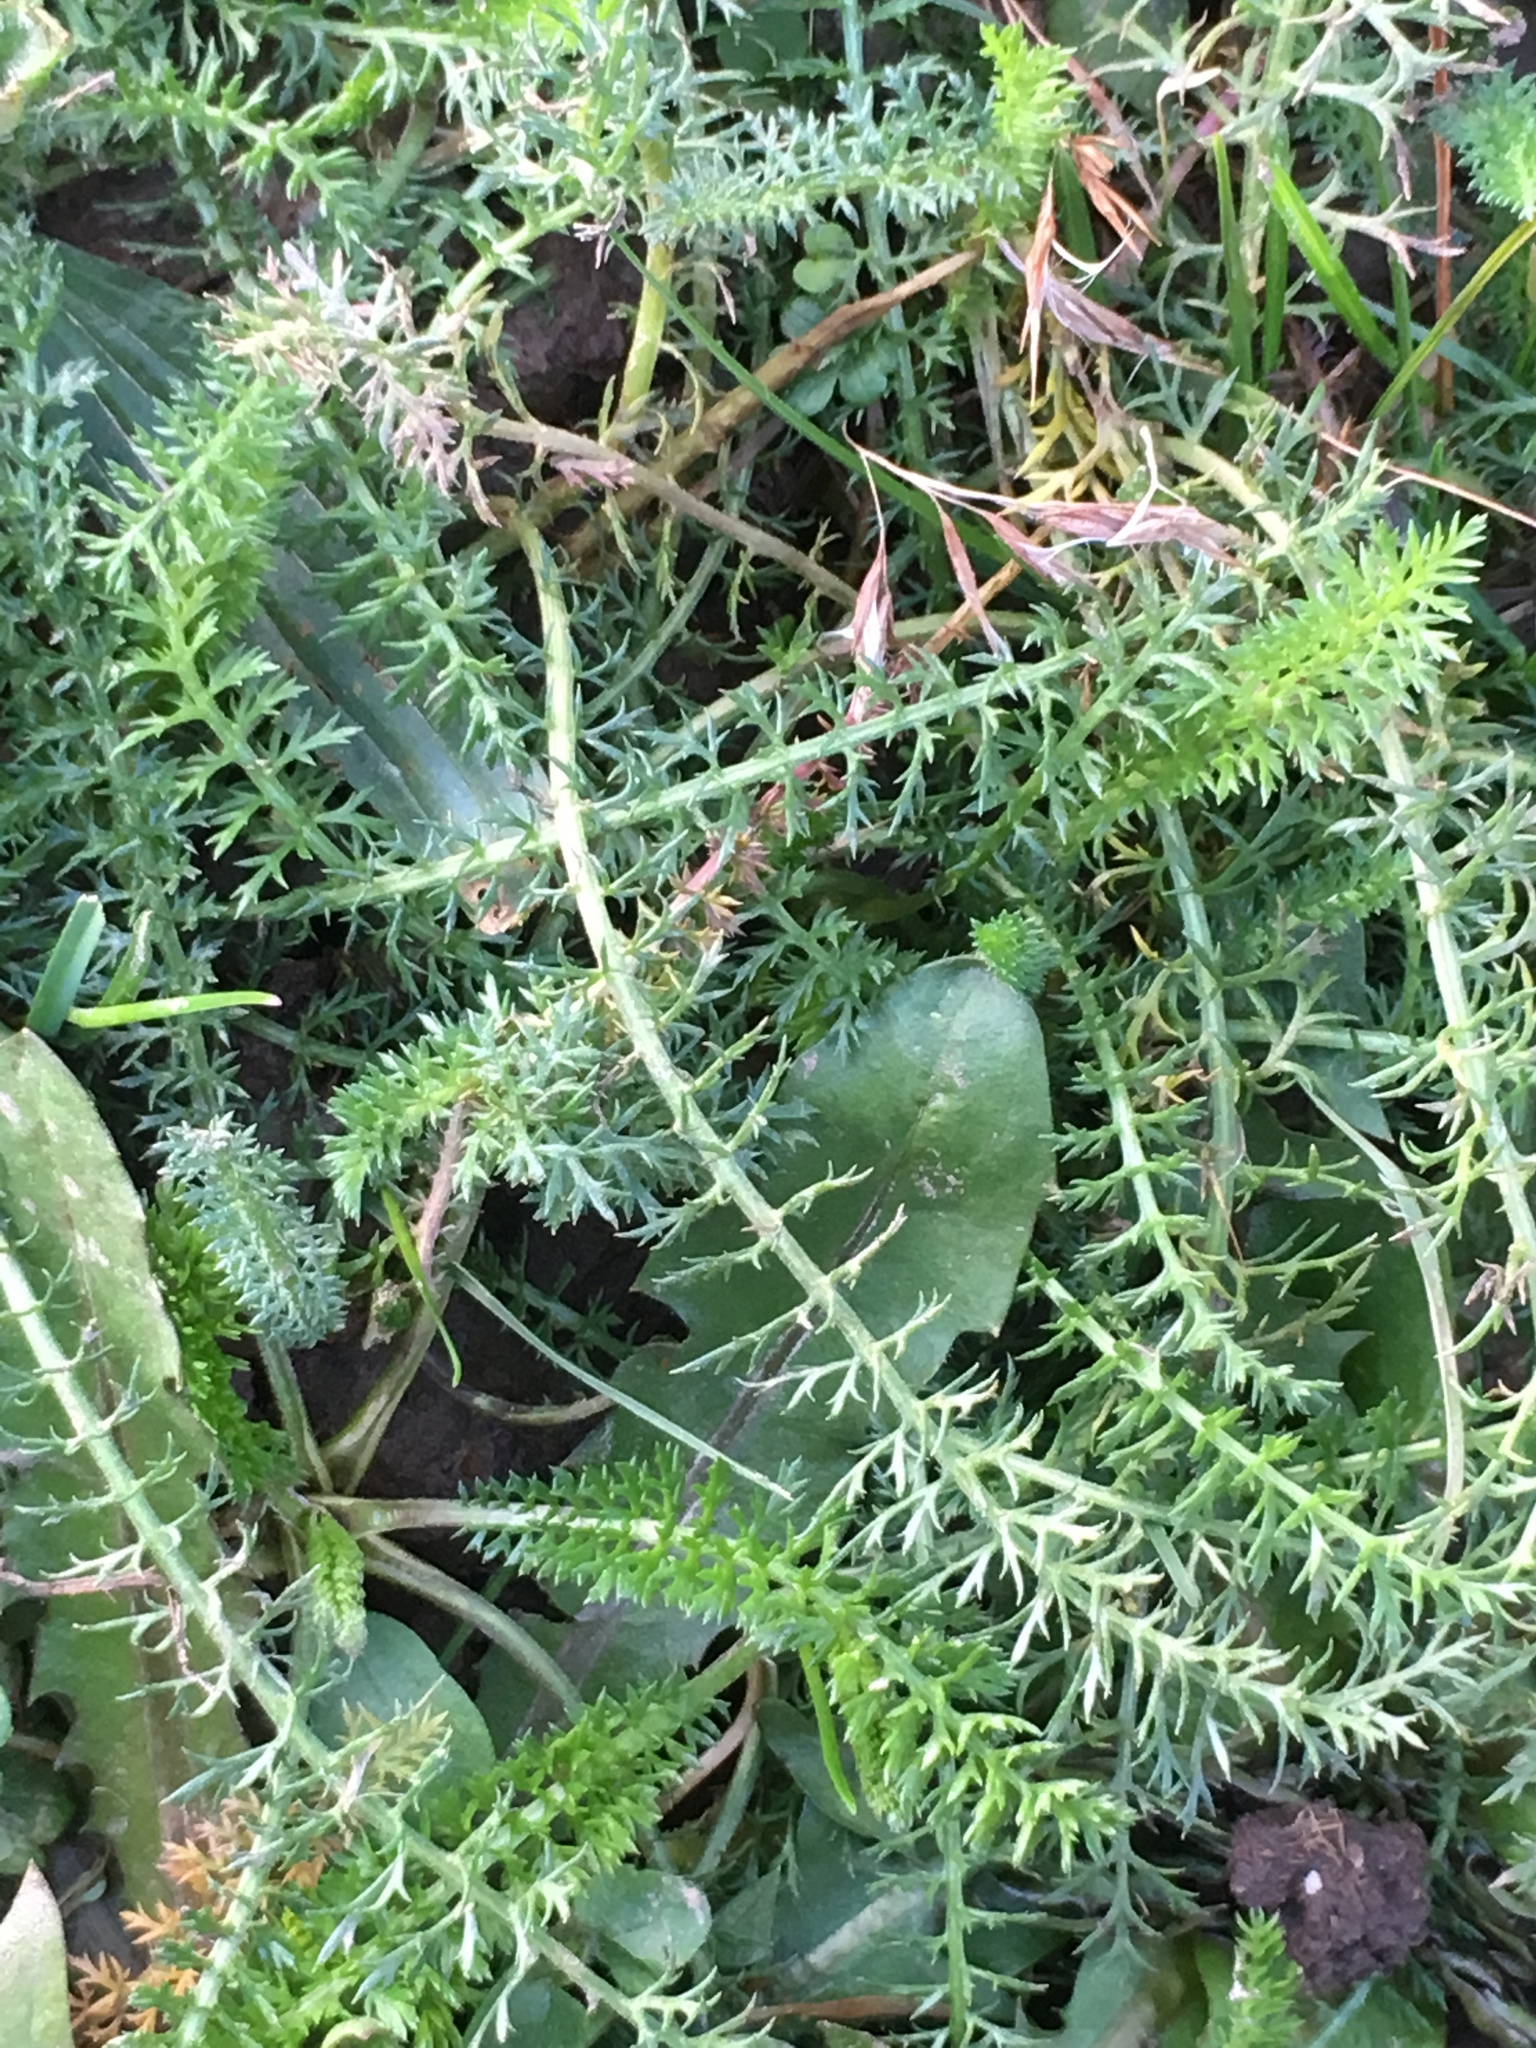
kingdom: Plantae
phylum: Tracheophyta
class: Magnoliopsida
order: Asterales
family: Asteraceae
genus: Achillea
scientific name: Achillea millefolium
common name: Yarrow
